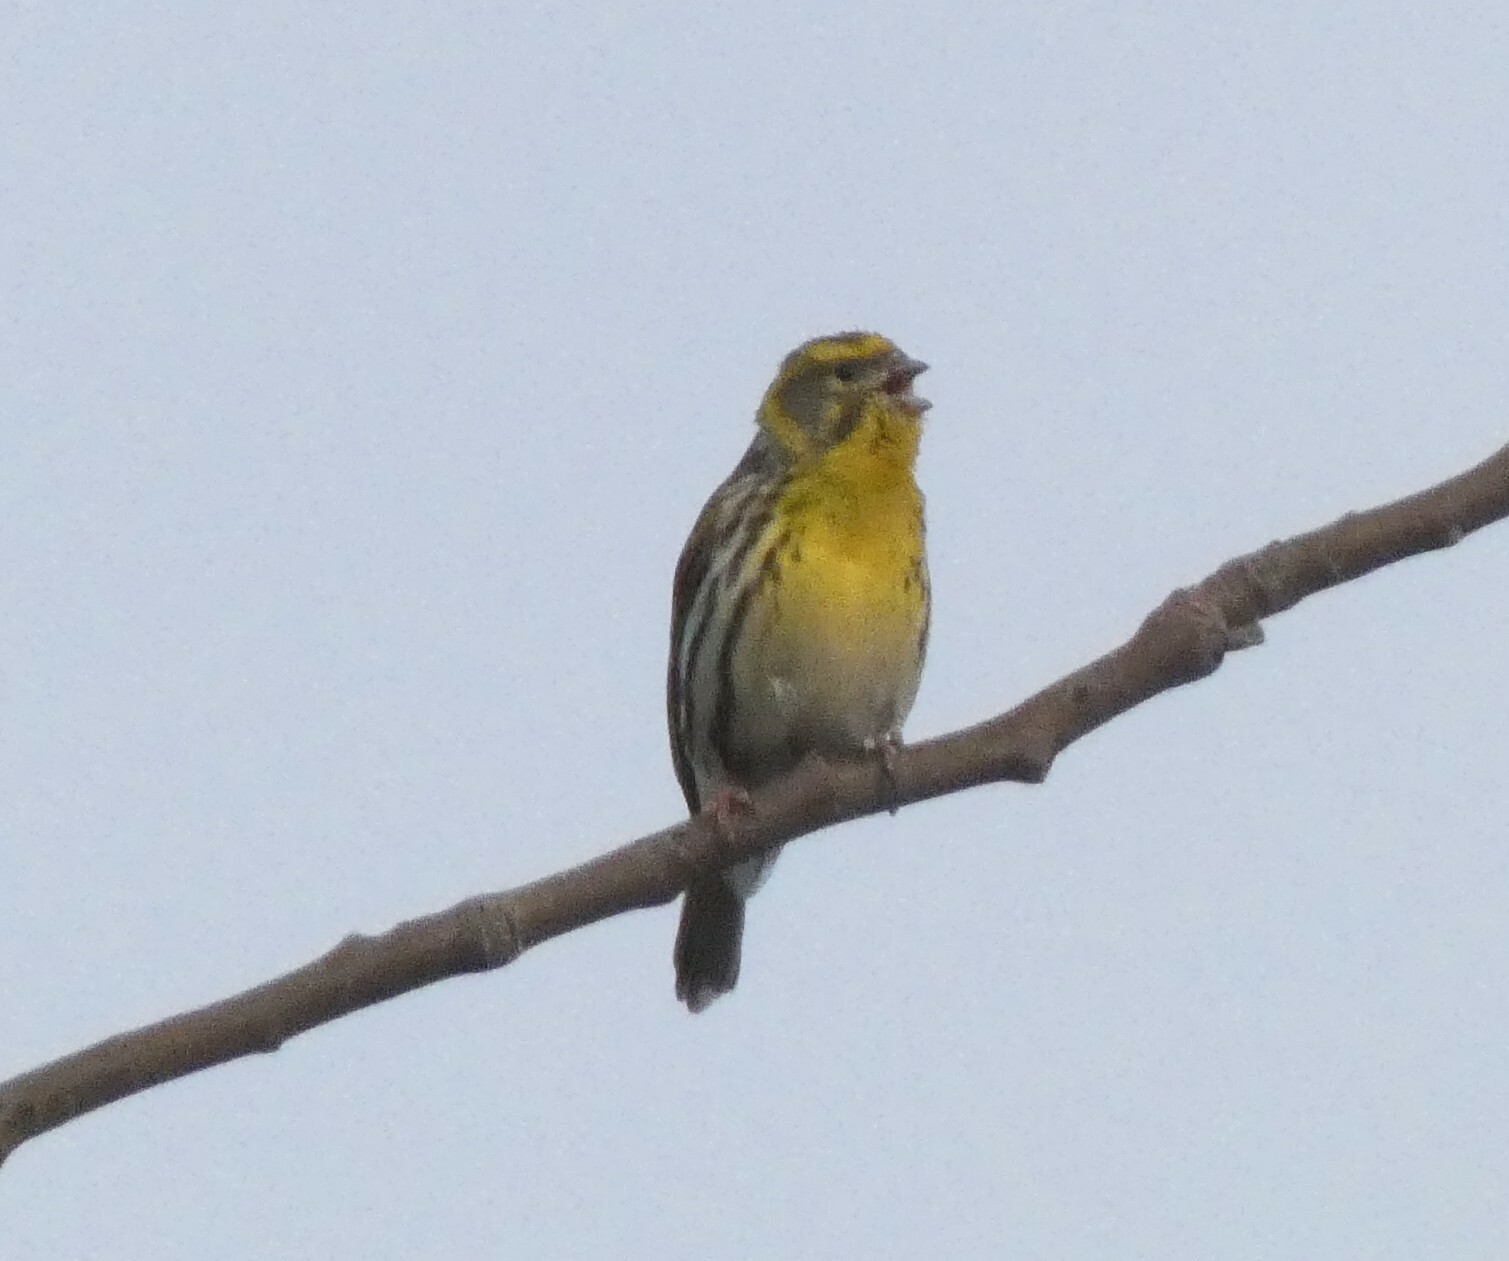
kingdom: Animalia
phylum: Chordata
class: Aves
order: Passeriformes
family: Fringillidae
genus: Serinus
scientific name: Serinus serinus
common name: European serin
